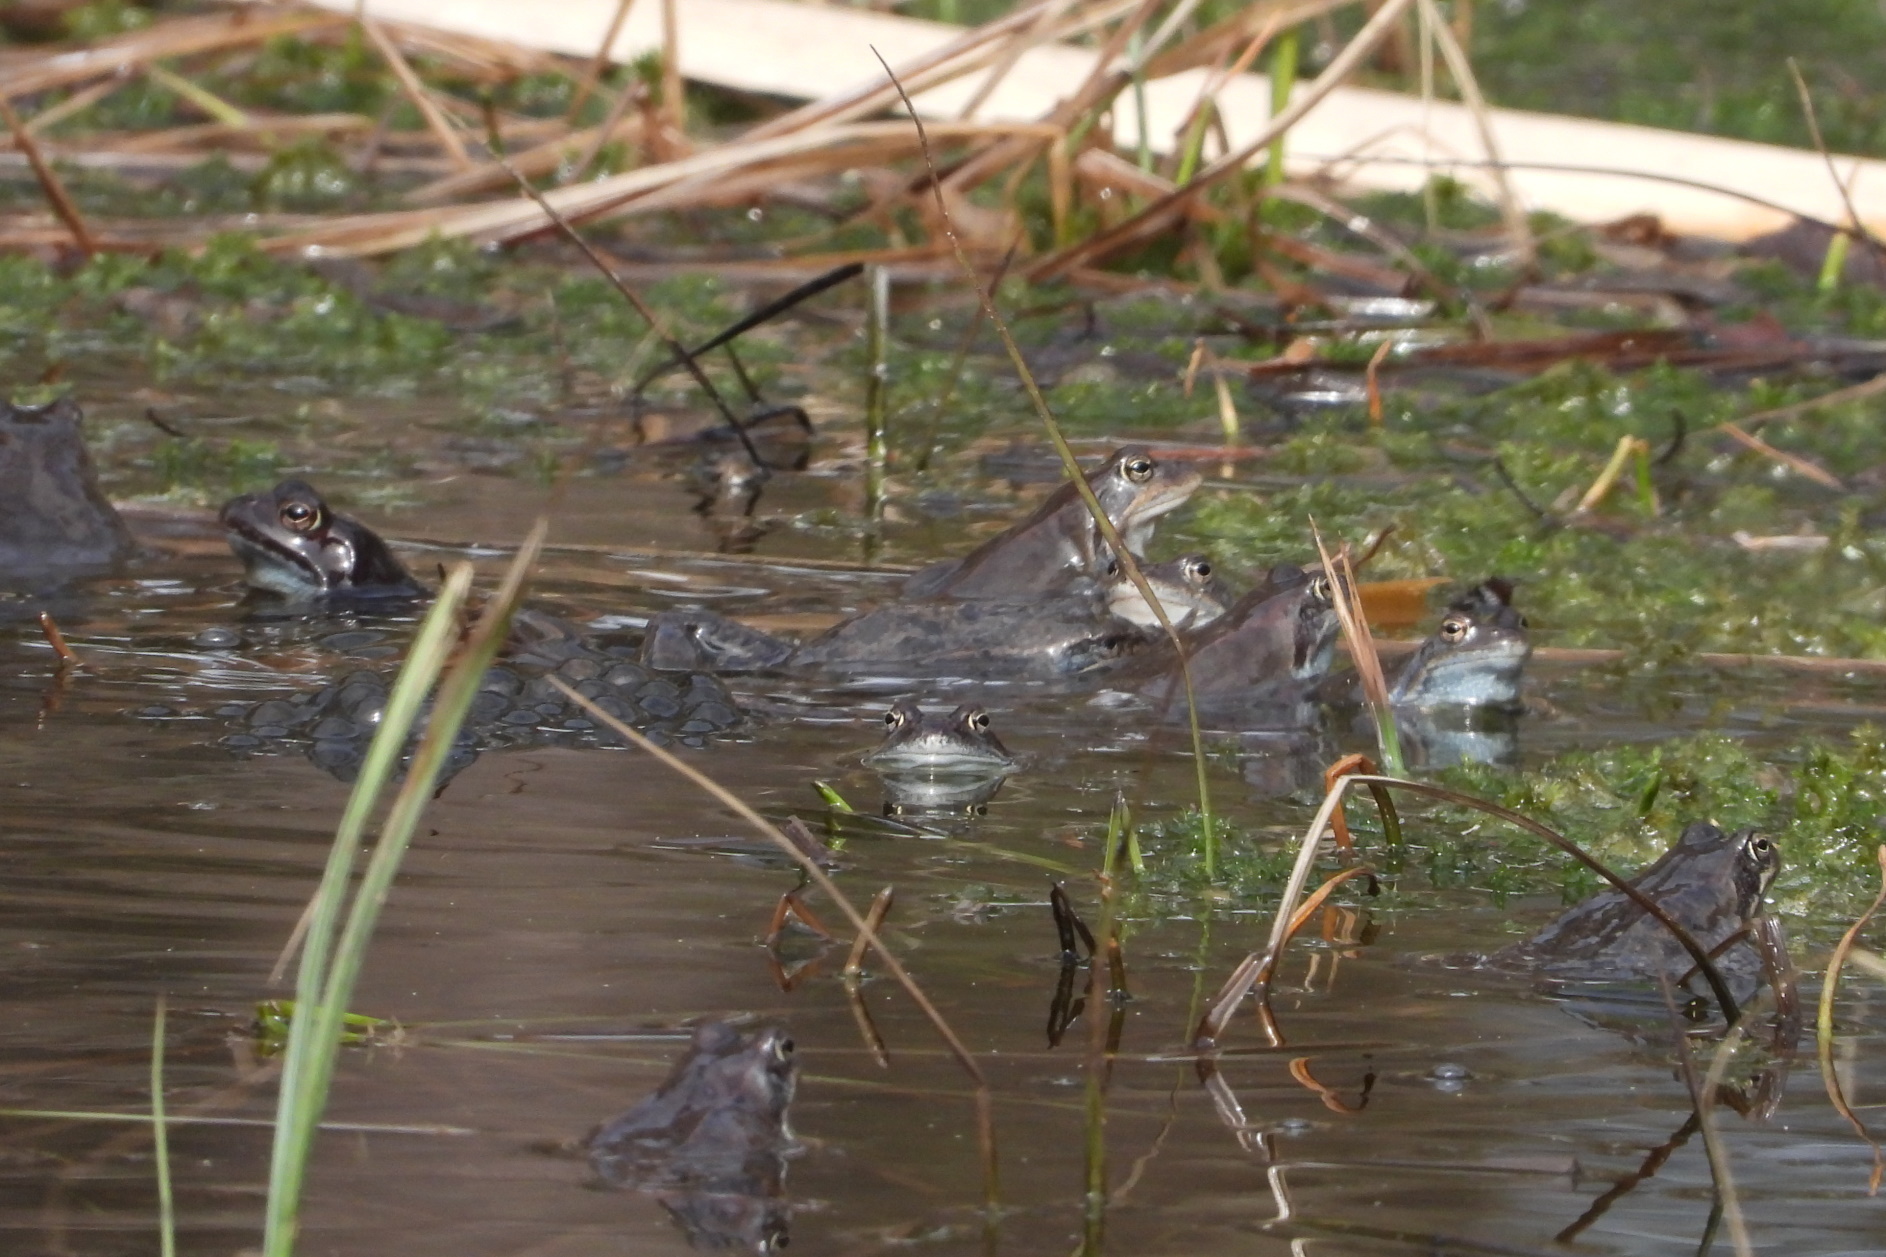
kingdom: Animalia
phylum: Chordata
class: Amphibia
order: Anura
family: Ranidae
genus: Rana
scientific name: Rana temporaria
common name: Common frog
